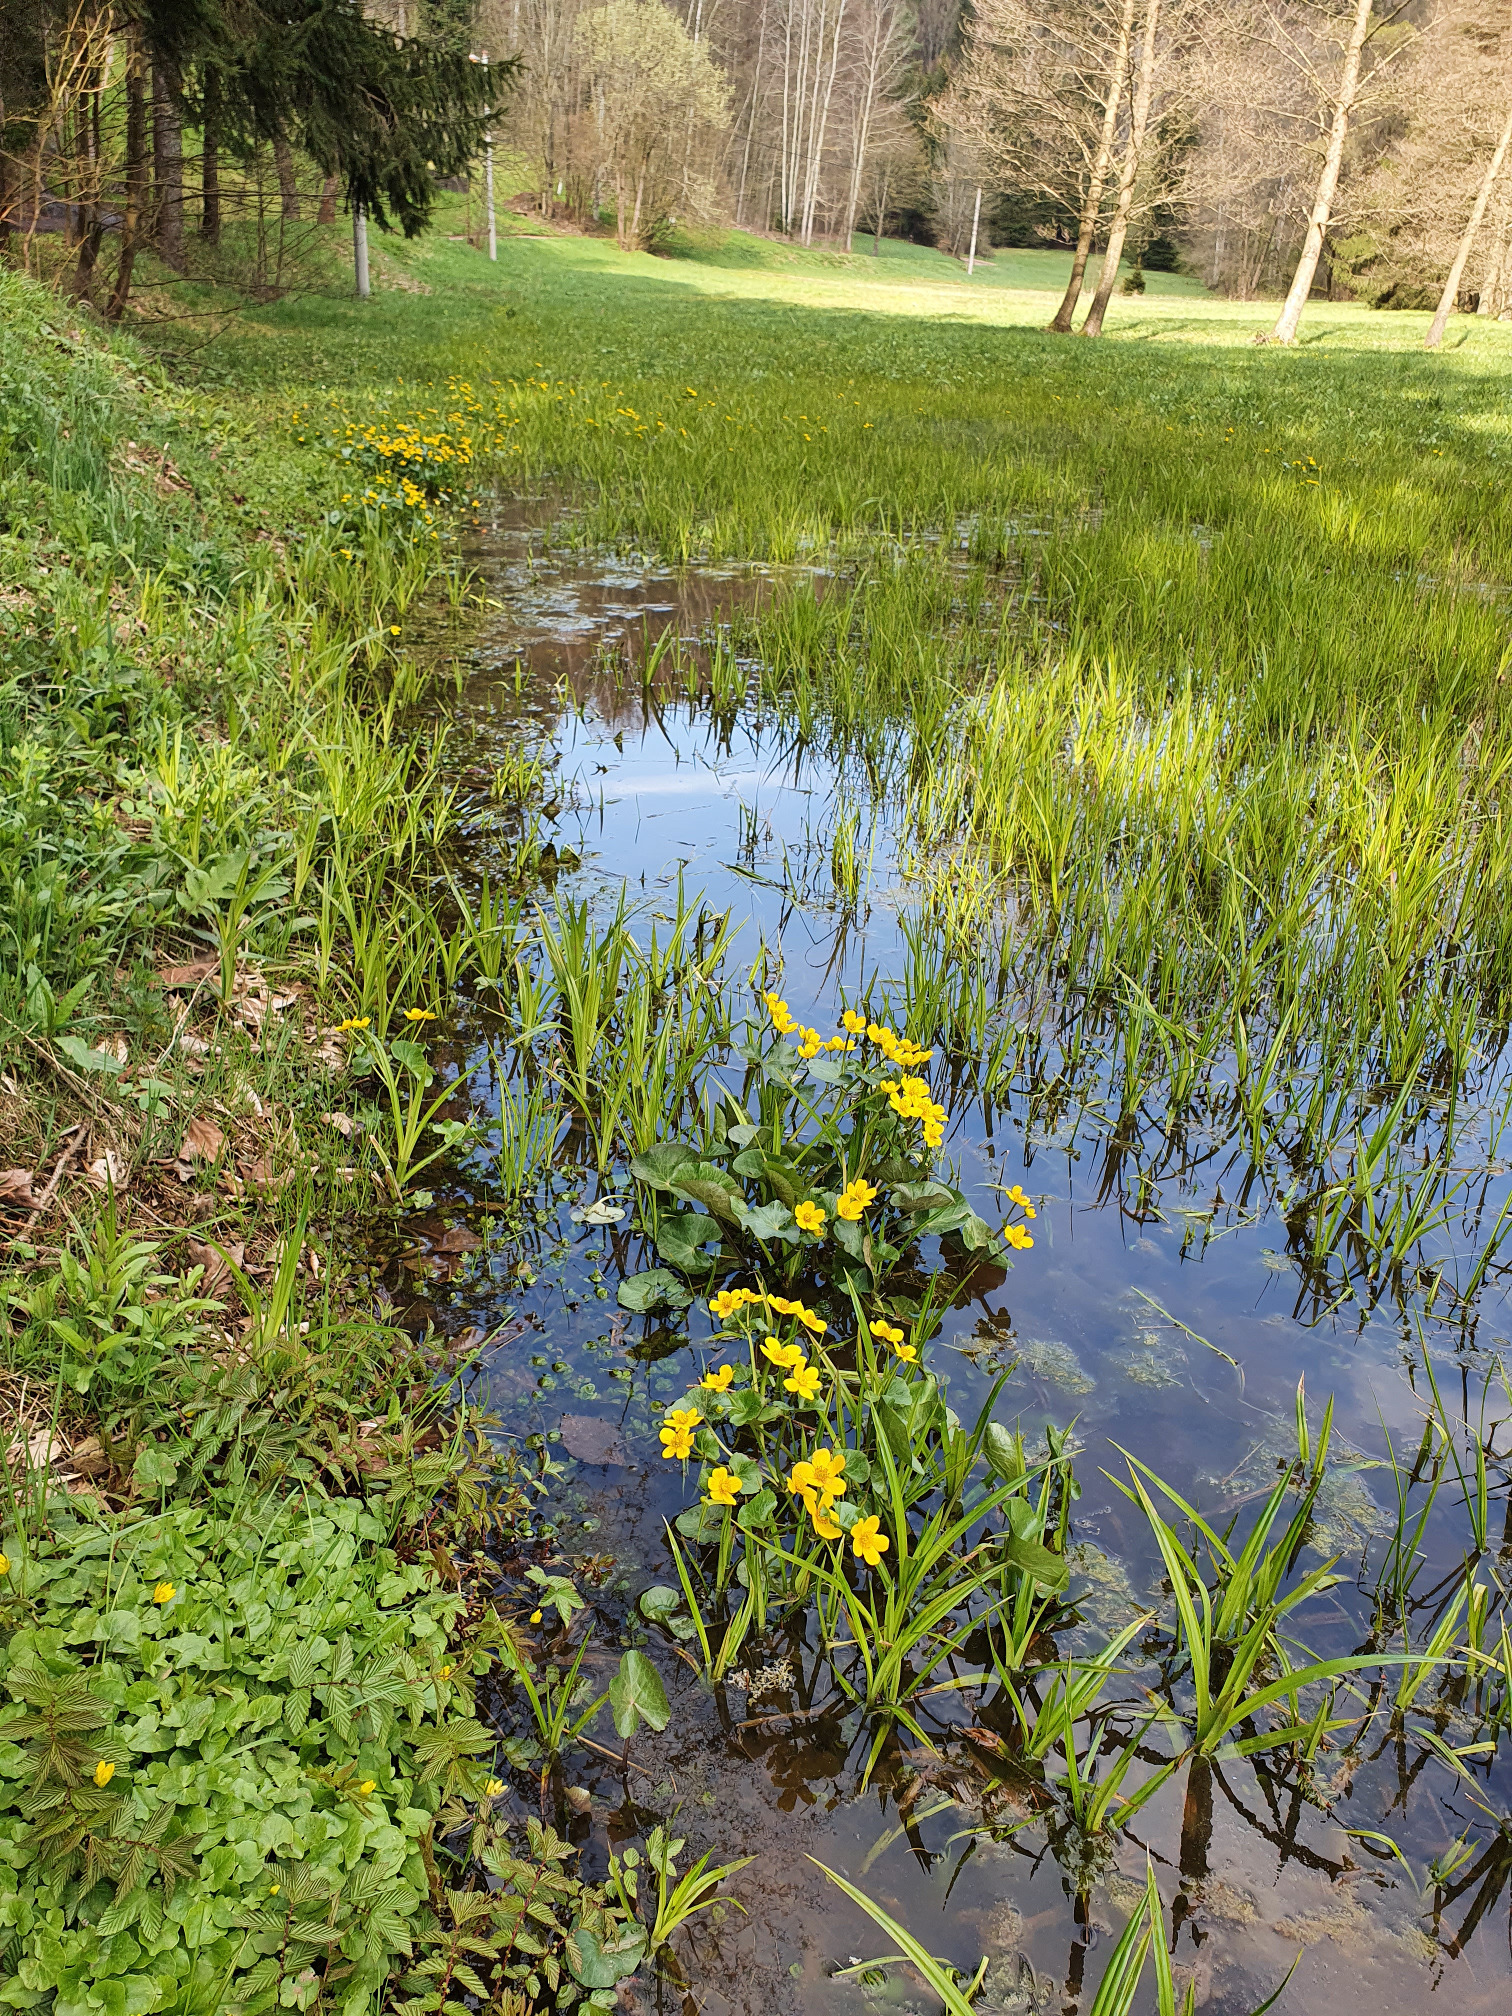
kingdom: Plantae
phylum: Tracheophyta
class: Magnoliopsida
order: Ranunculales
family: Ranunculaceae
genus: Caltha
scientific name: Caltha palustris
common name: Marsh marigold
